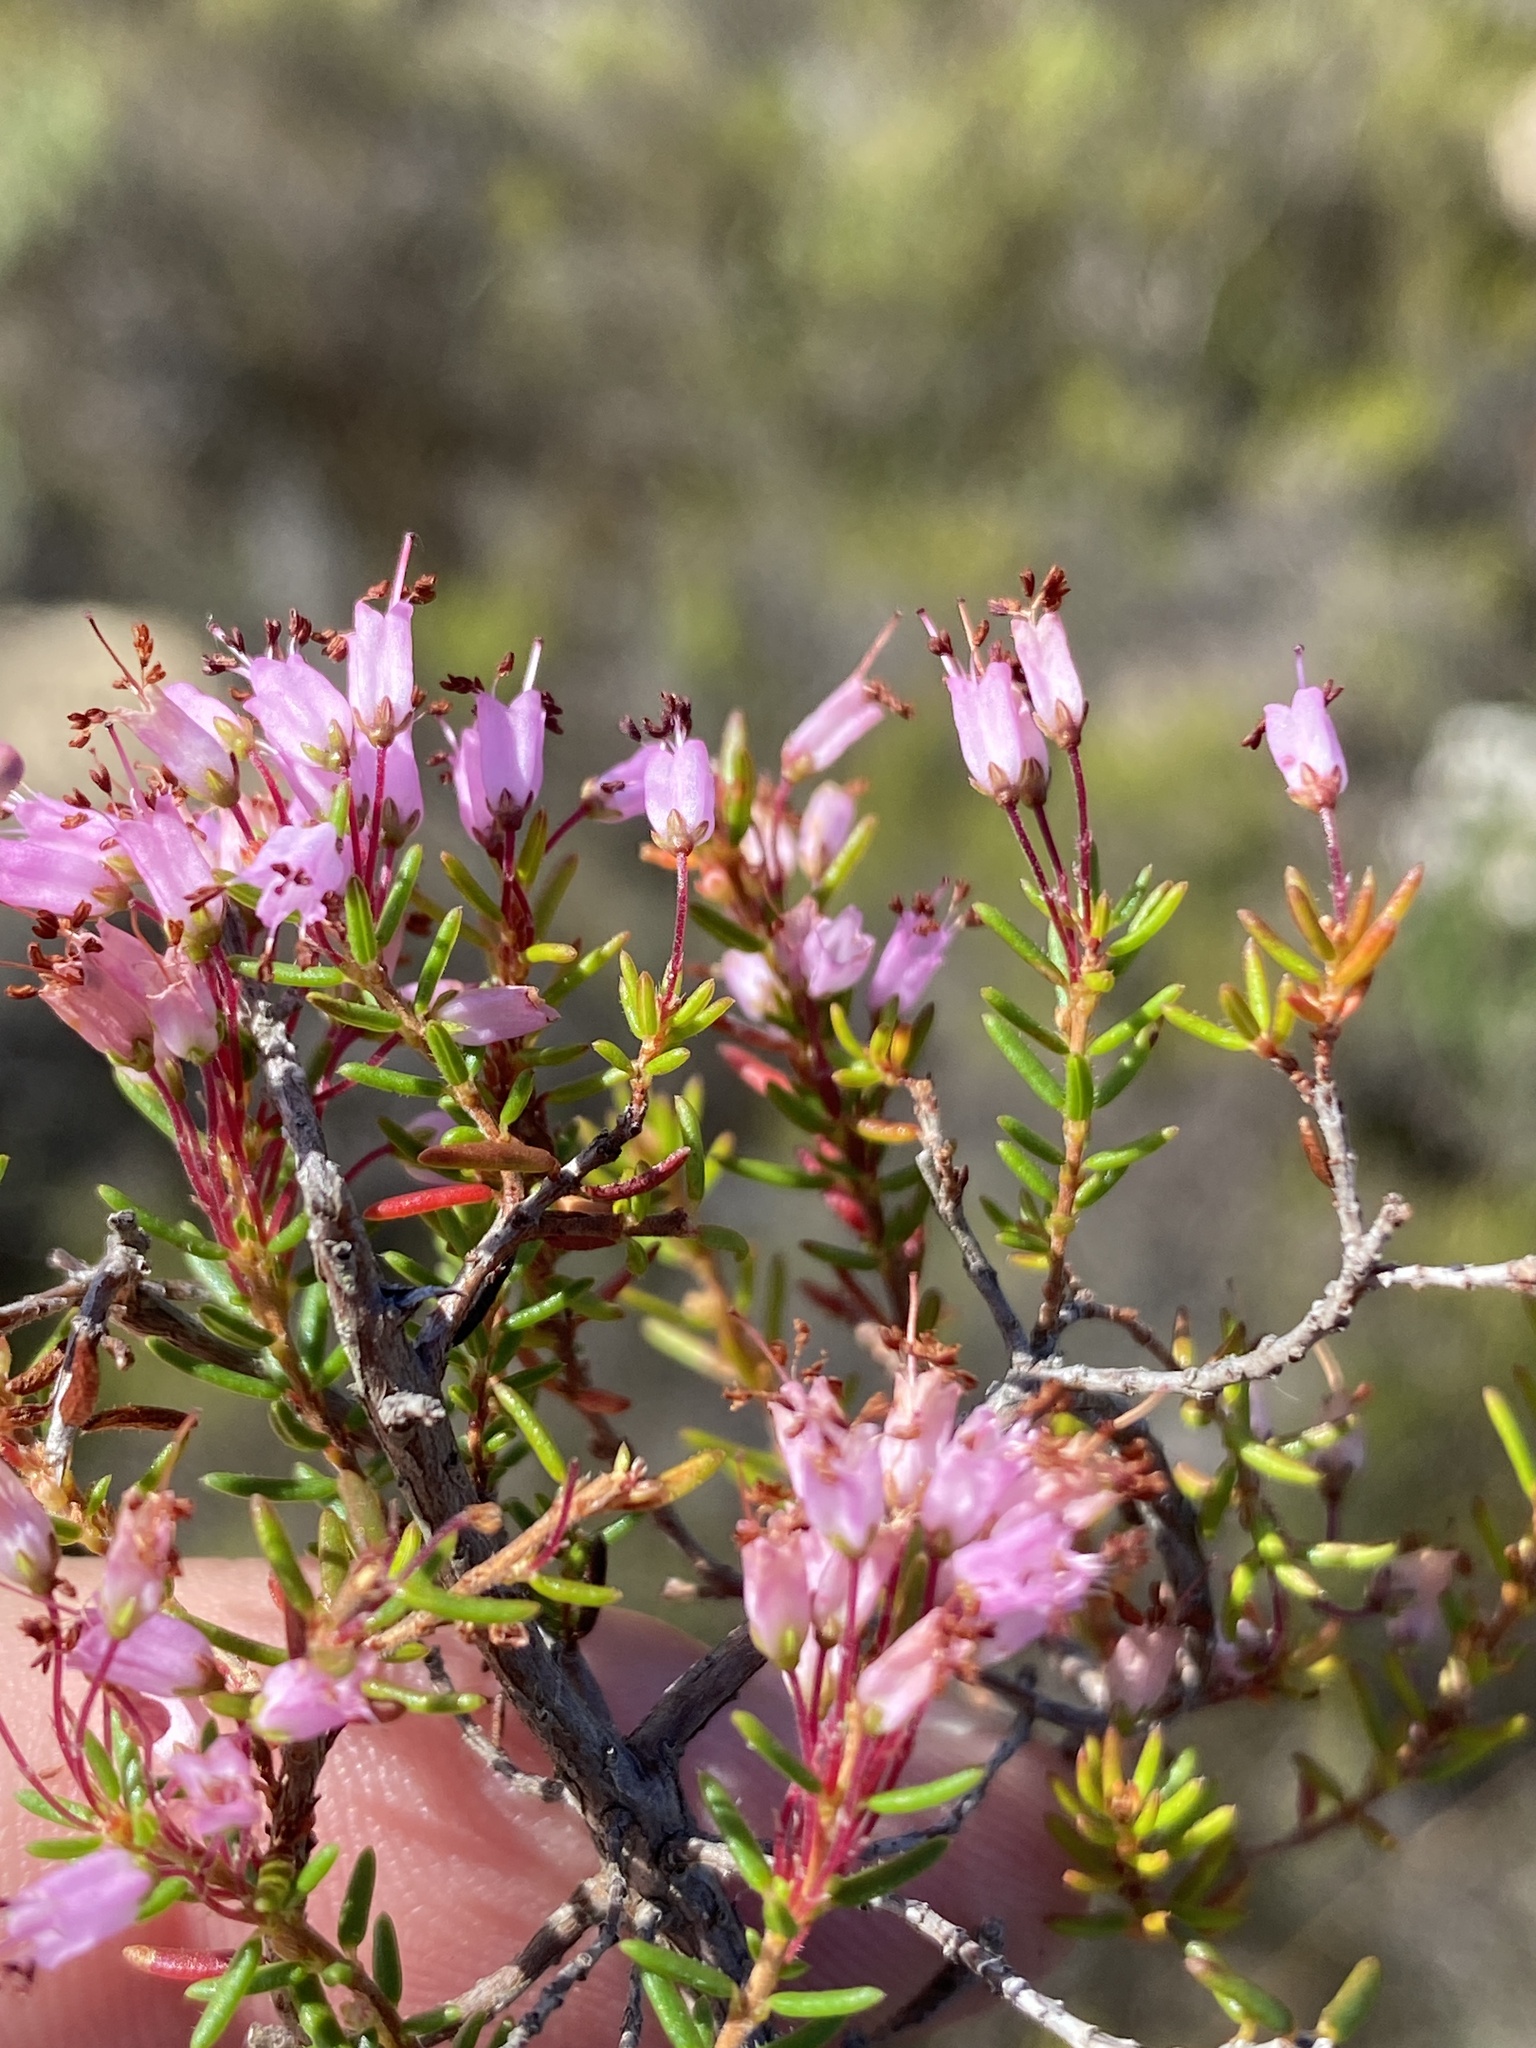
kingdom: Plantae
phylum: Tracheophyta
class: Magnoliopsida
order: Ericales
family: Ericaceae
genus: Erica
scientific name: Erica nudiflora
